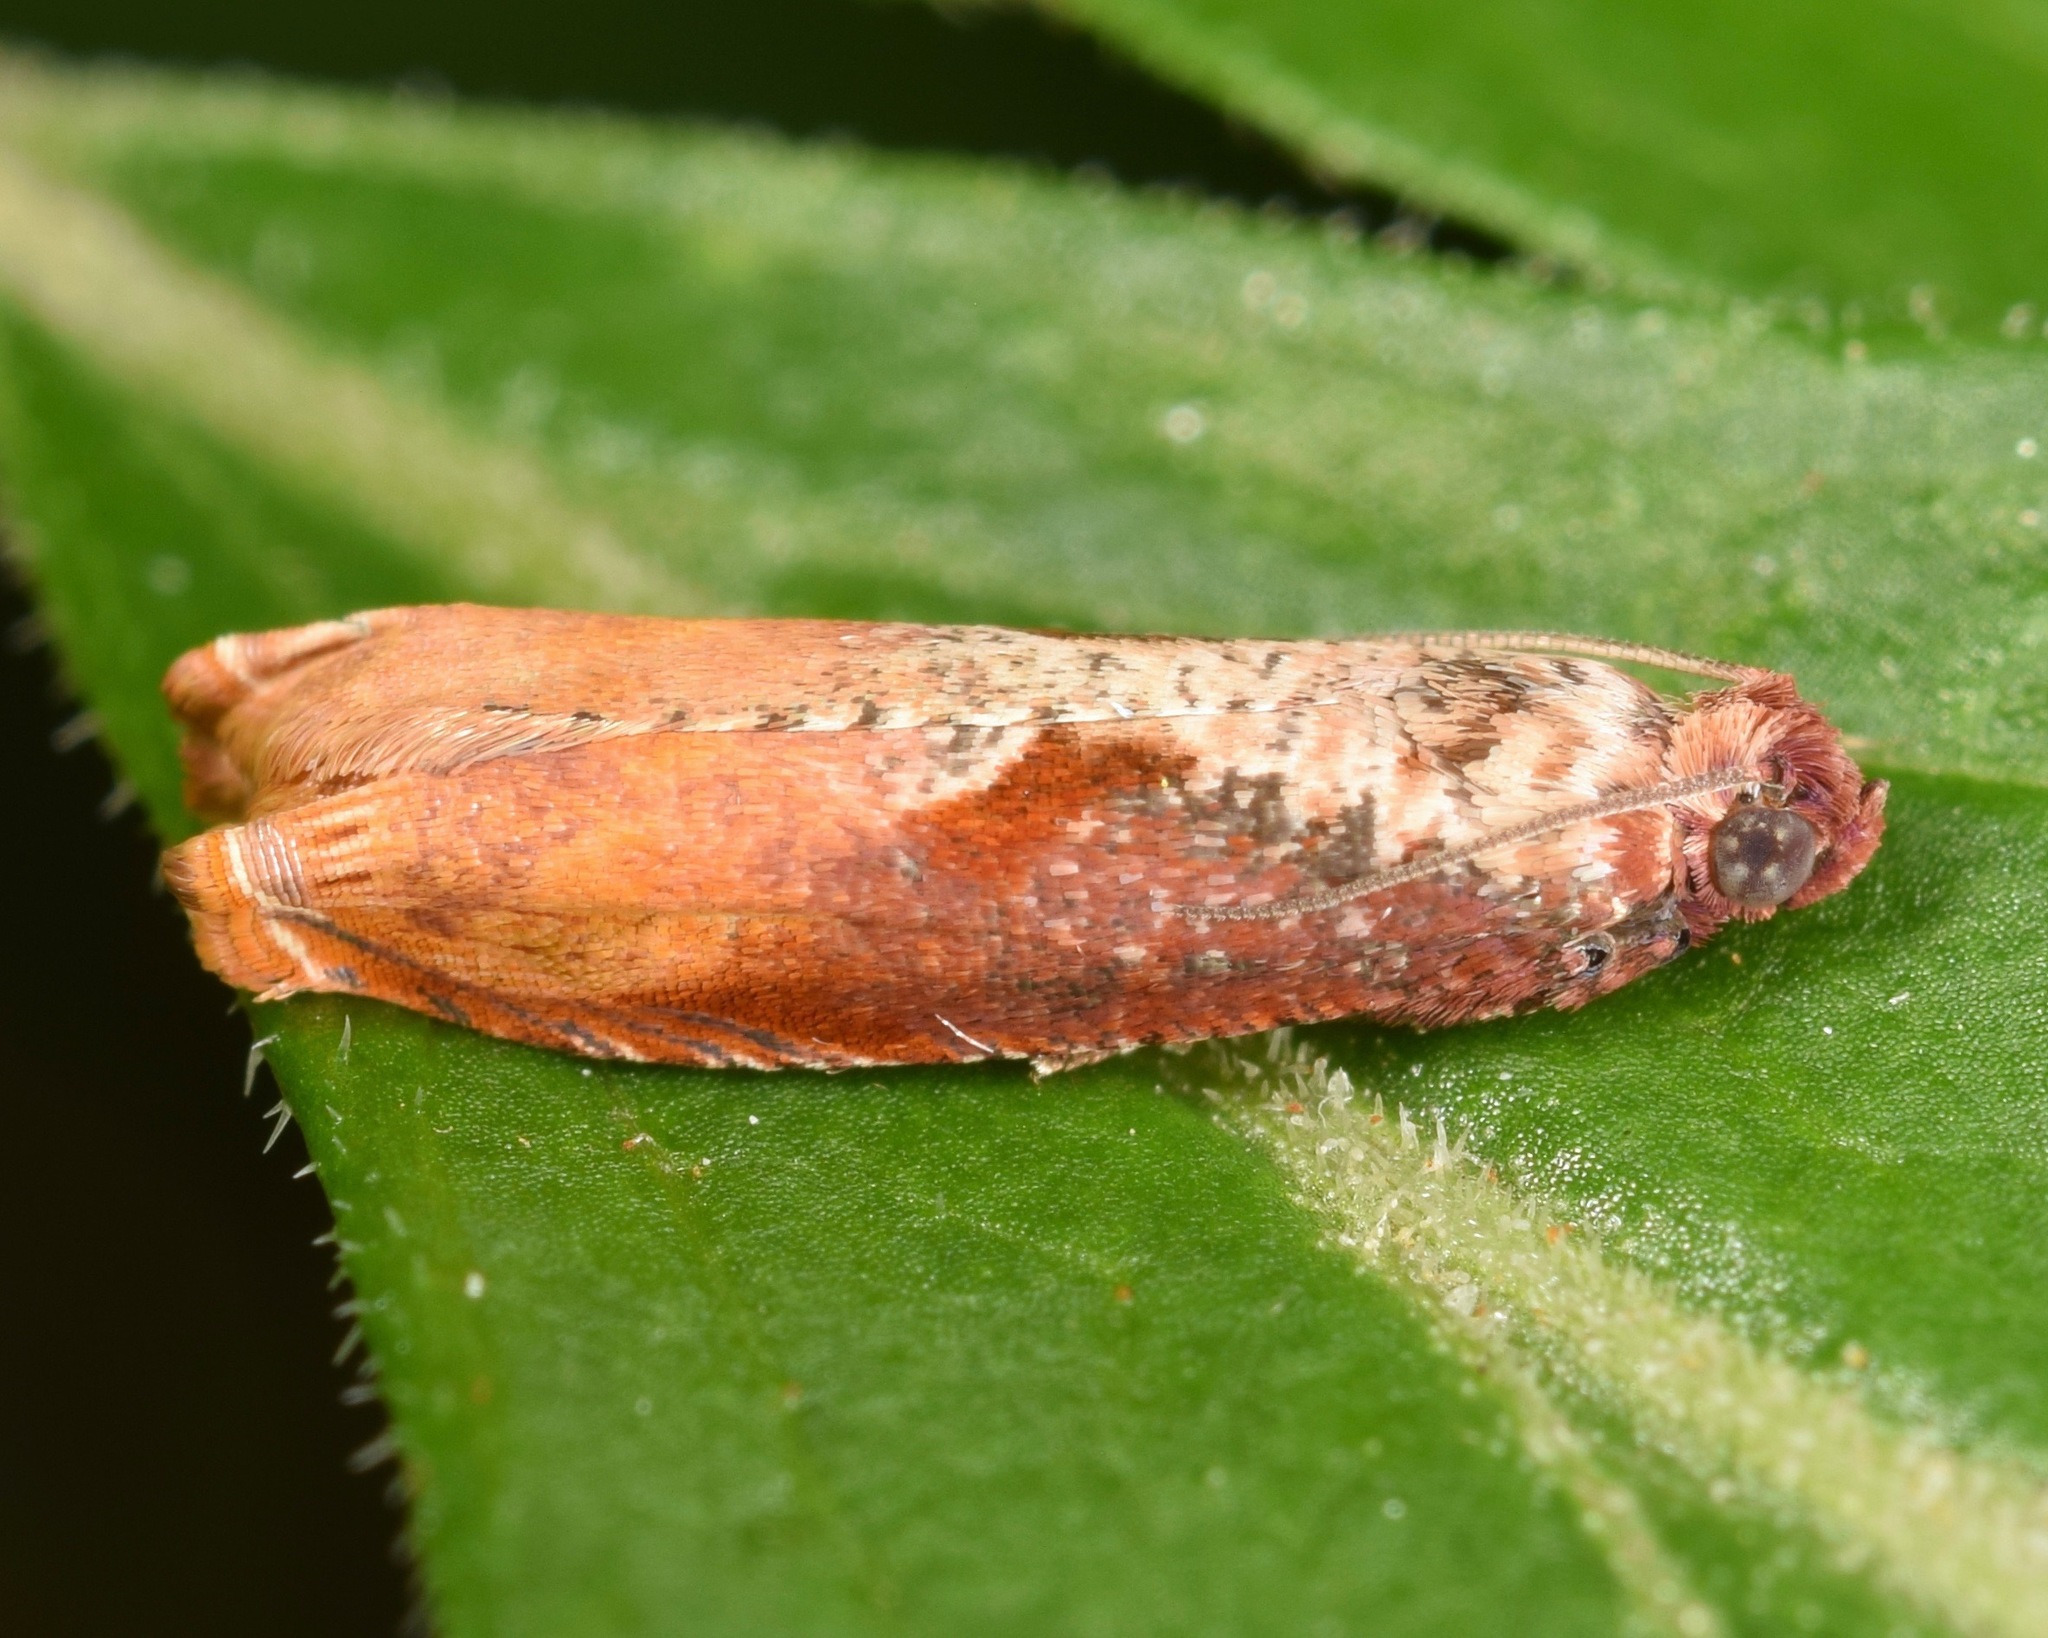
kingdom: Animalia
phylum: Arthropoda
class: Insecta
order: Lepidoptera
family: Tortricidae
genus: Episimus
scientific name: Episimus tyrius
